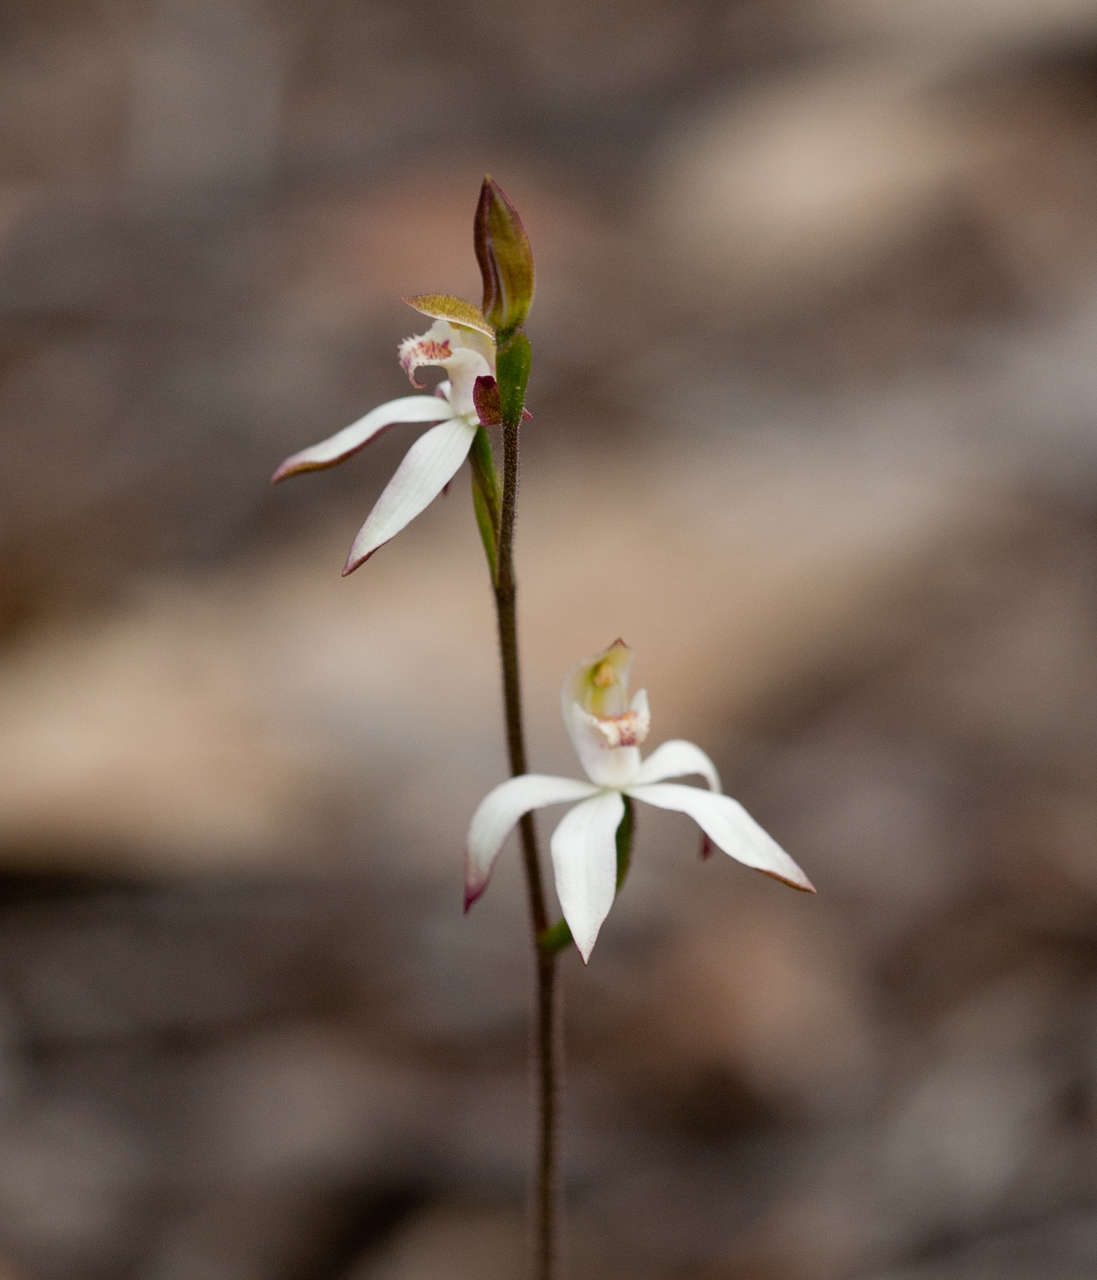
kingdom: Plantae
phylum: Tracheophyta
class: Liliopsida
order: Asparagales
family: Orchidaceae
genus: Caladenia
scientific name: Caladenia moschata
